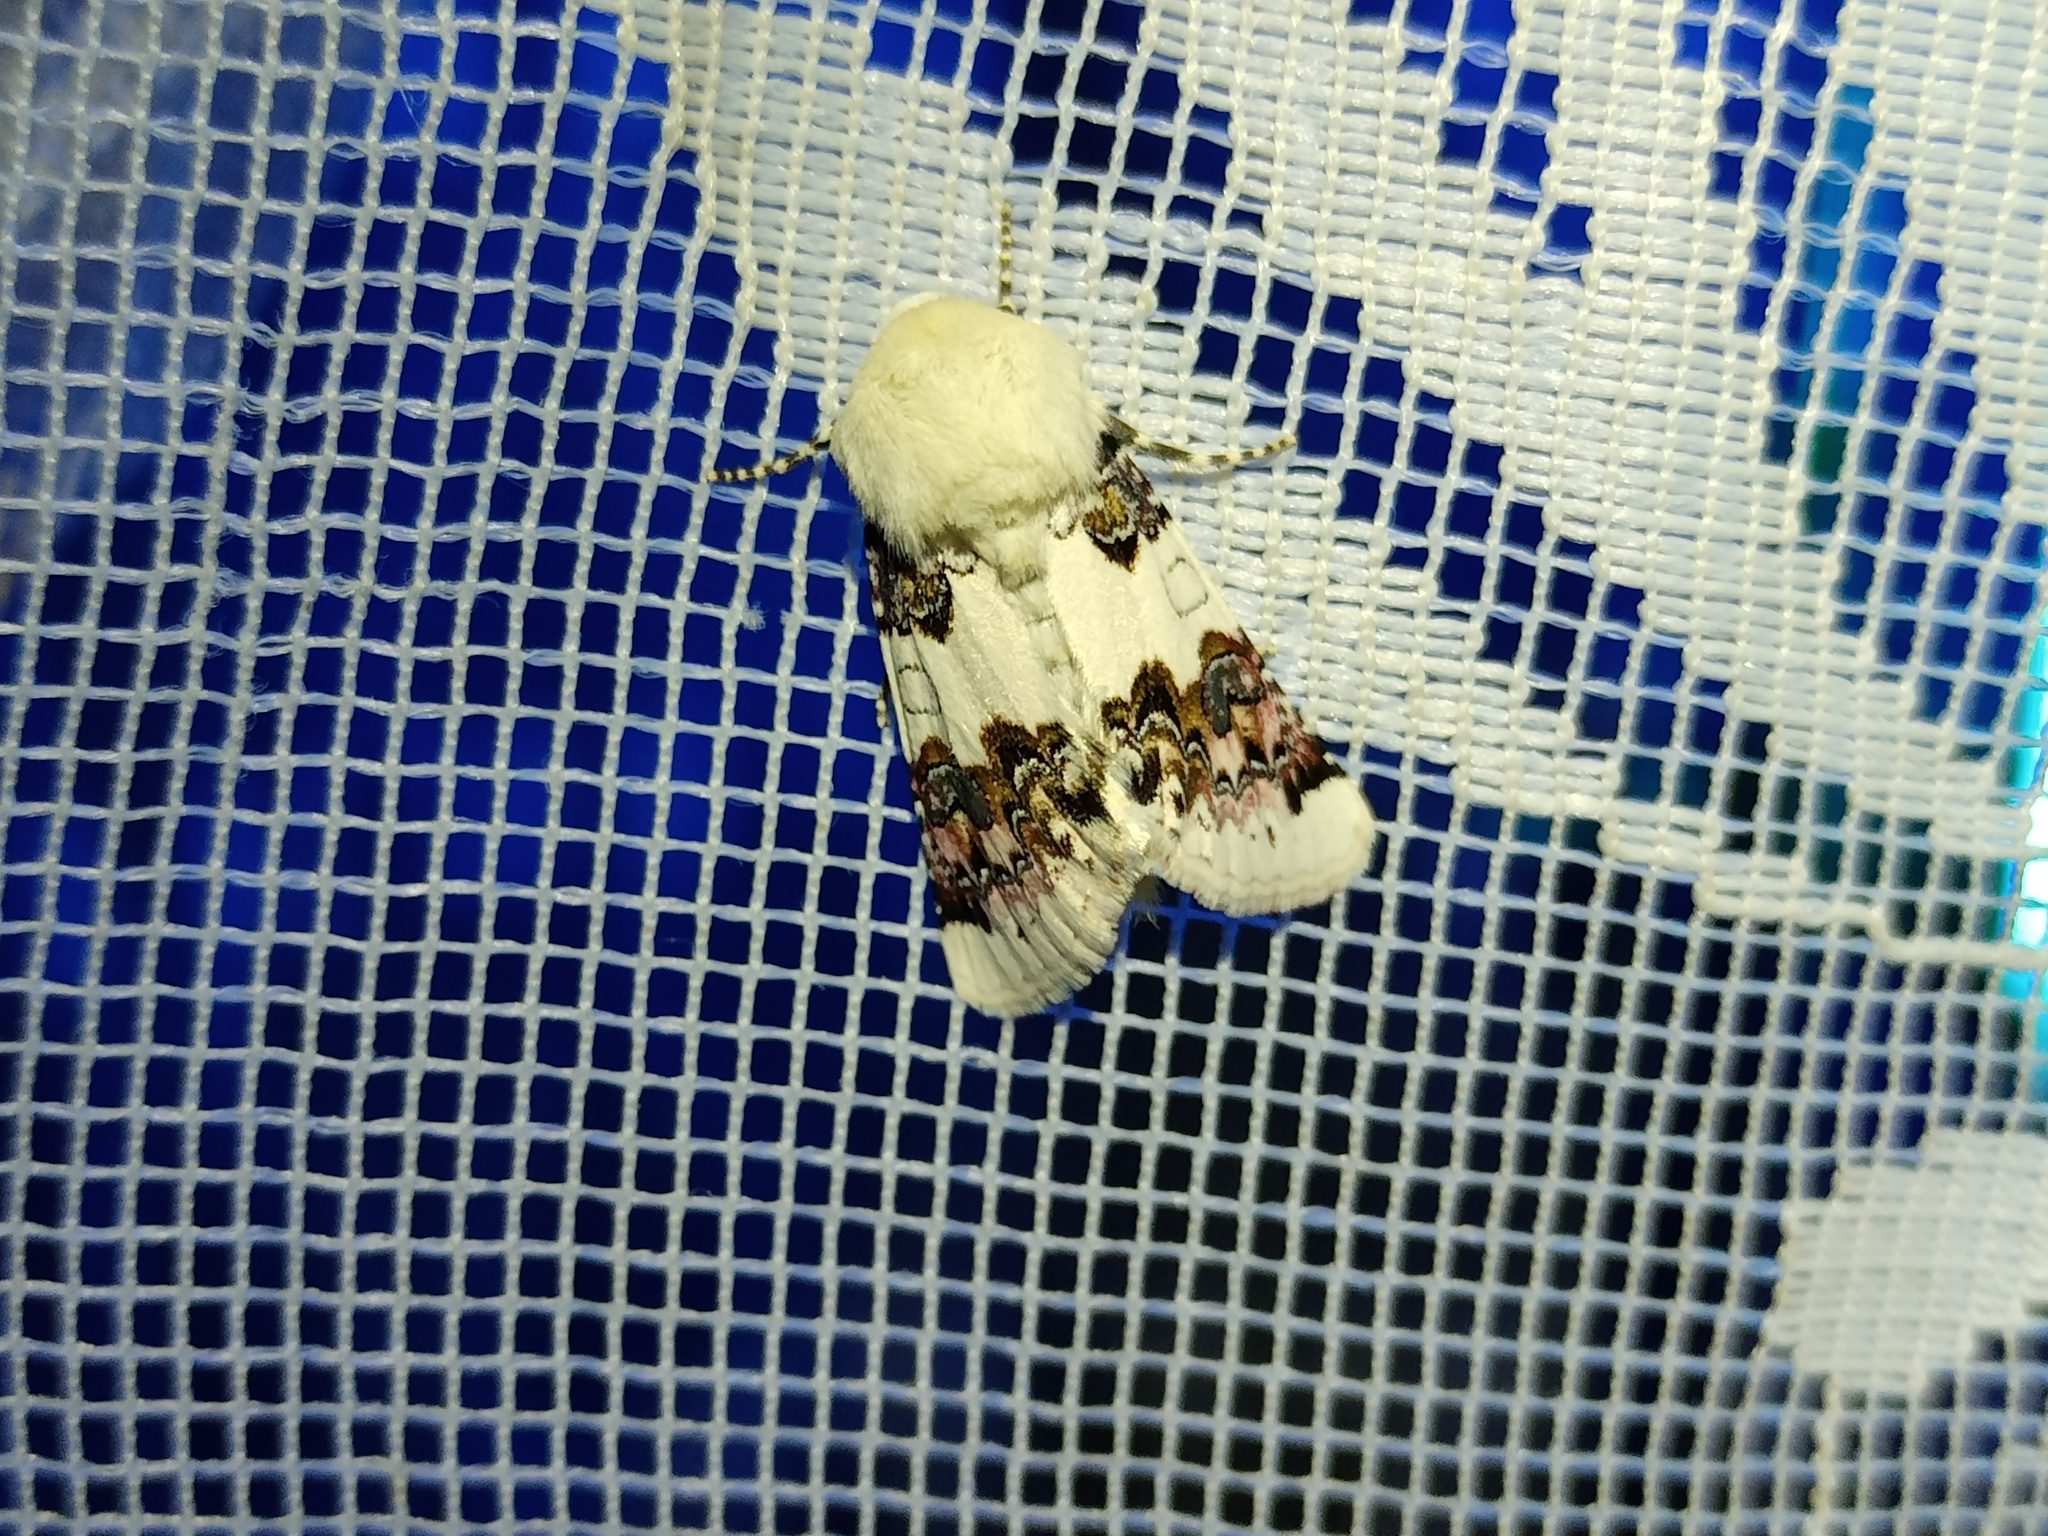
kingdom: Animalia
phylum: Arthropoda
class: Insecta
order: Lepidoptera
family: Noctuidae
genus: Enterpia
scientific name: Enterpia laudeti
